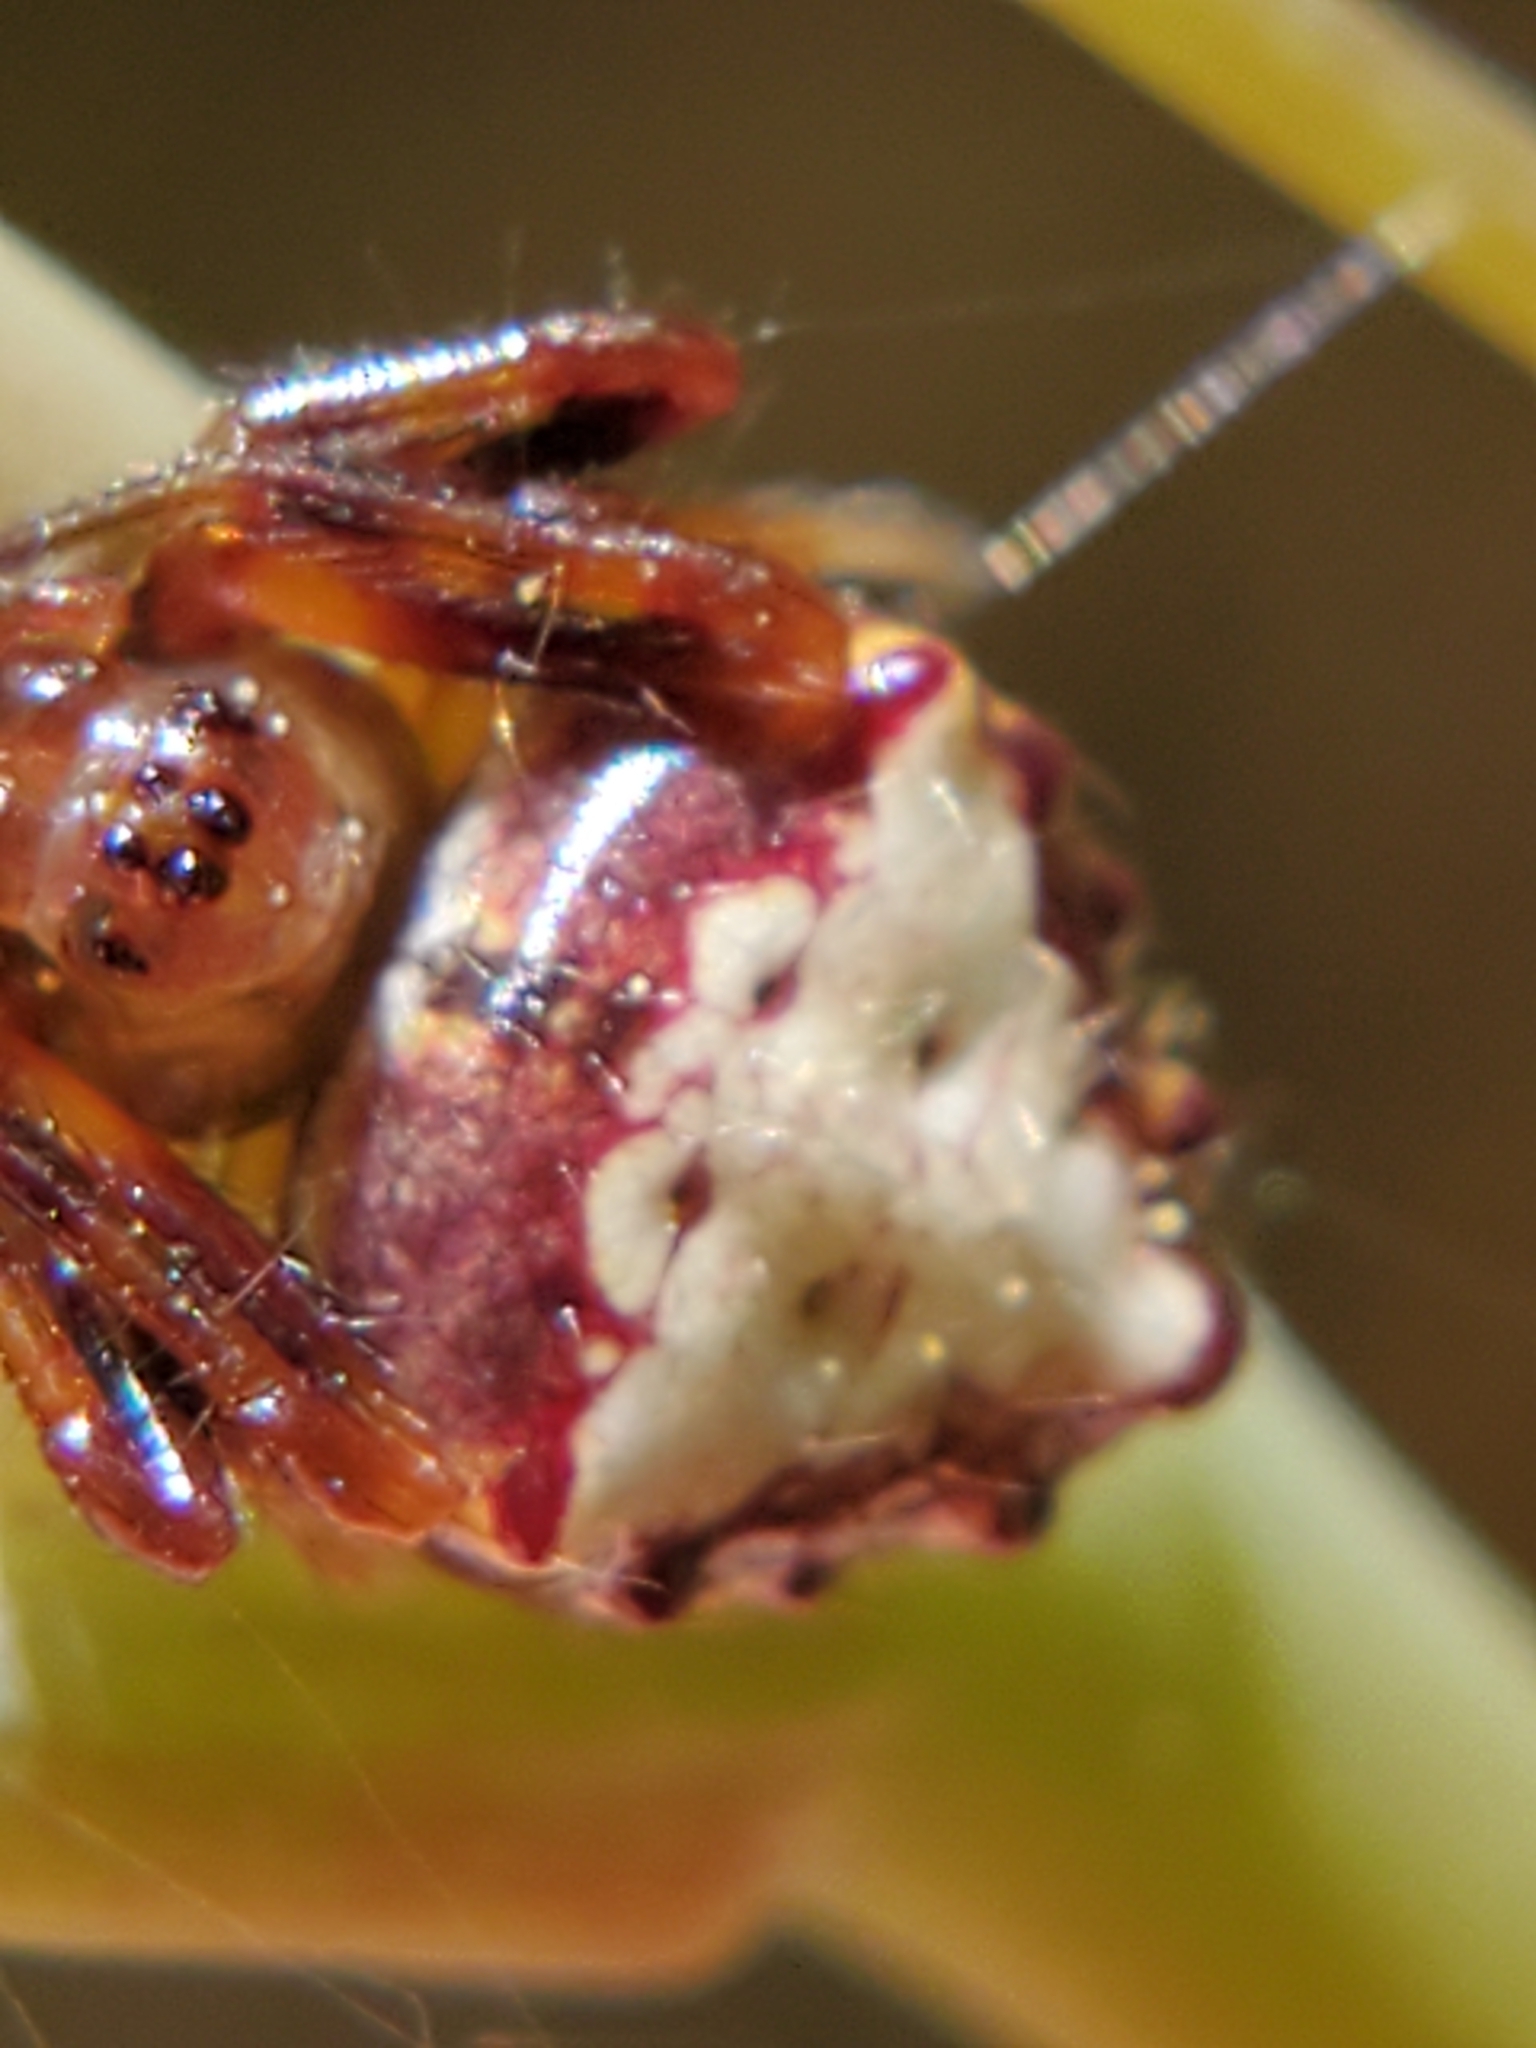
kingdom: Animalia
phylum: Arthropoda
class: Arachnida
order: Araneae
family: Araneidae
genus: Verrucosa
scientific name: Verrucosa arenata
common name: Orb weavers
